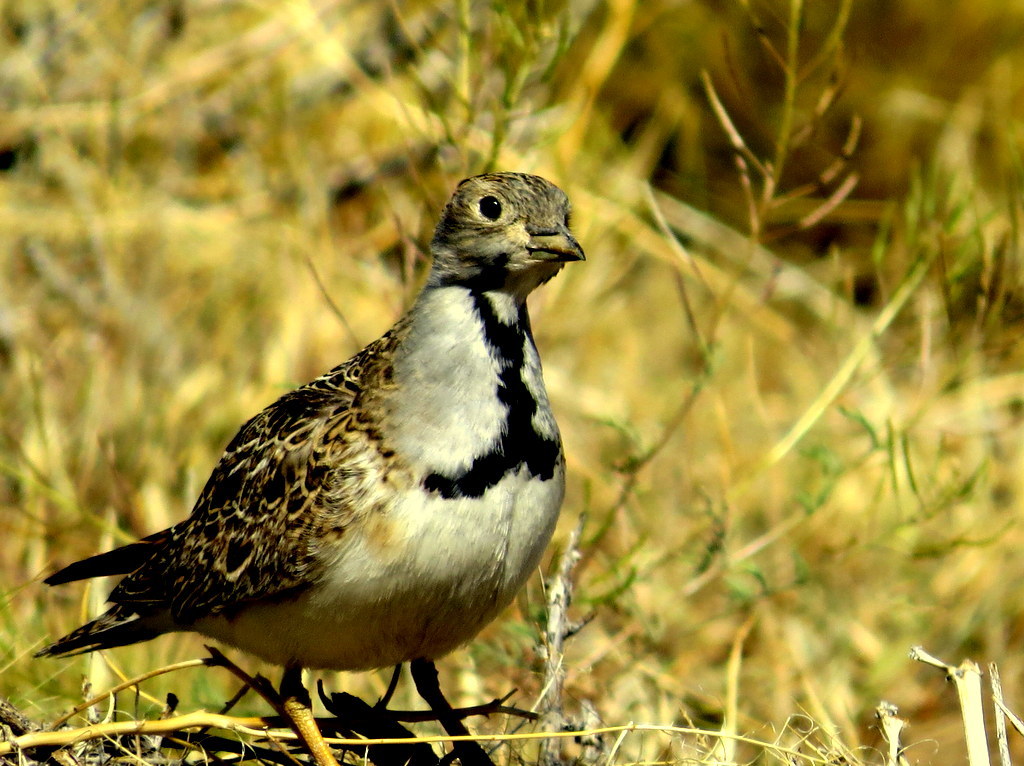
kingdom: Animalia
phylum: Chordata
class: Aves
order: Charadriiformes
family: Thinocoridae
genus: Thinocorus
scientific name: Thinocorus rumicivorus
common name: Least seedsnipe
